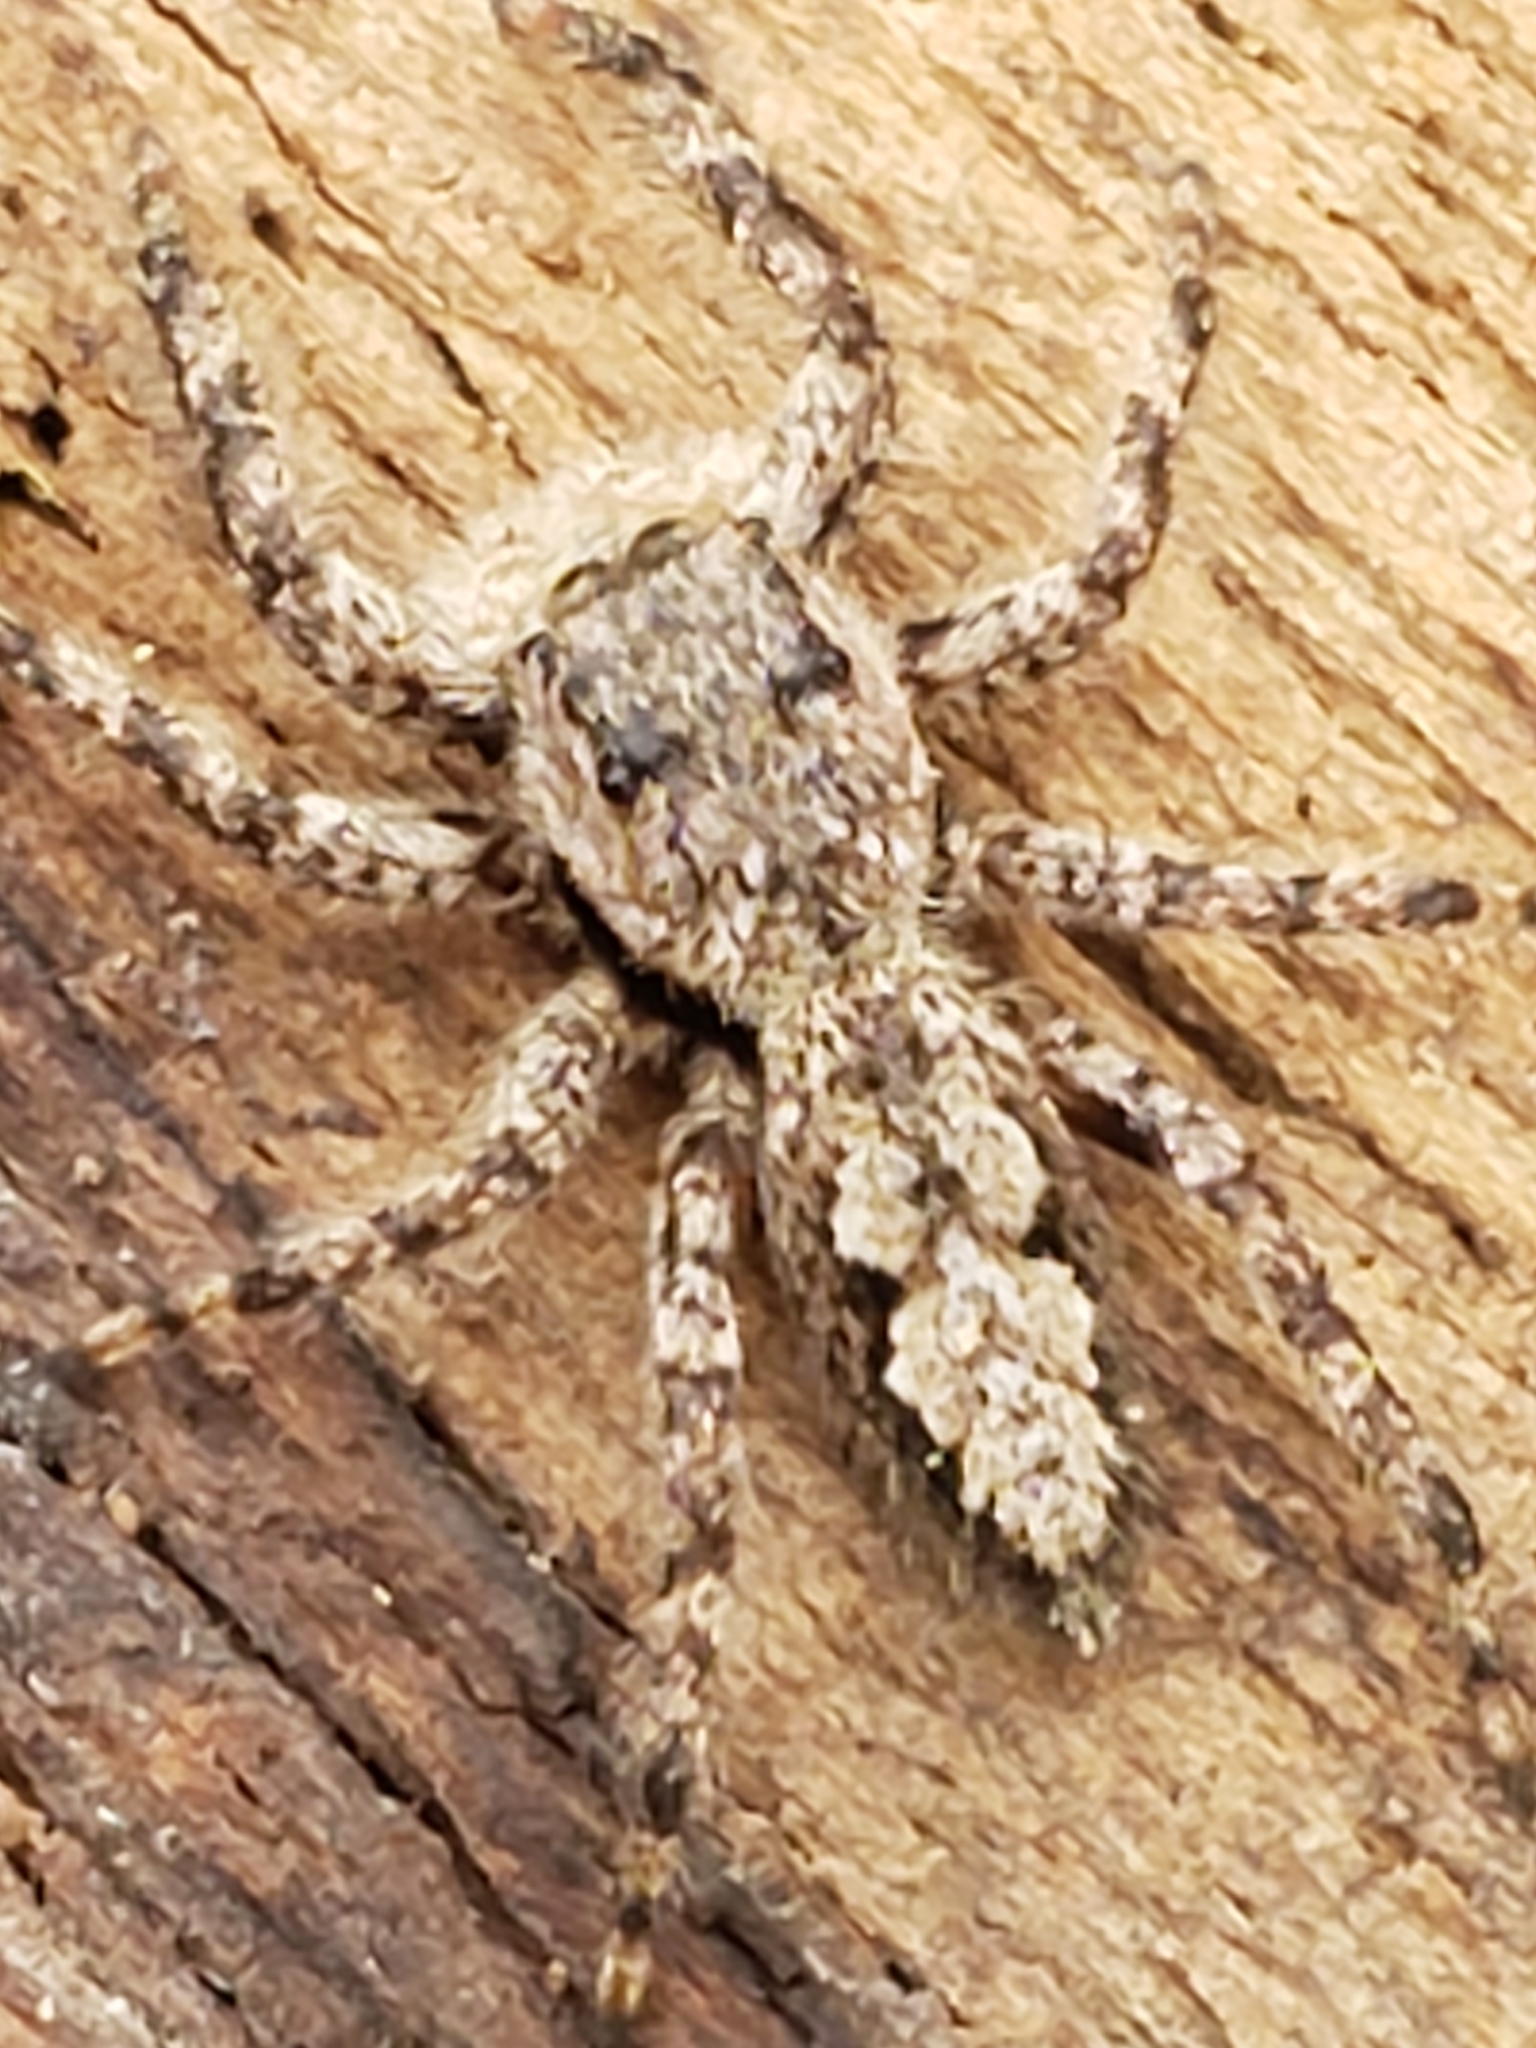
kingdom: Animalia
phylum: Arthropoda
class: Arachnida
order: Araneae
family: Salticidae
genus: Platycryptus
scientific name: Platycryptus undatus
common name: Tan jumping spider
